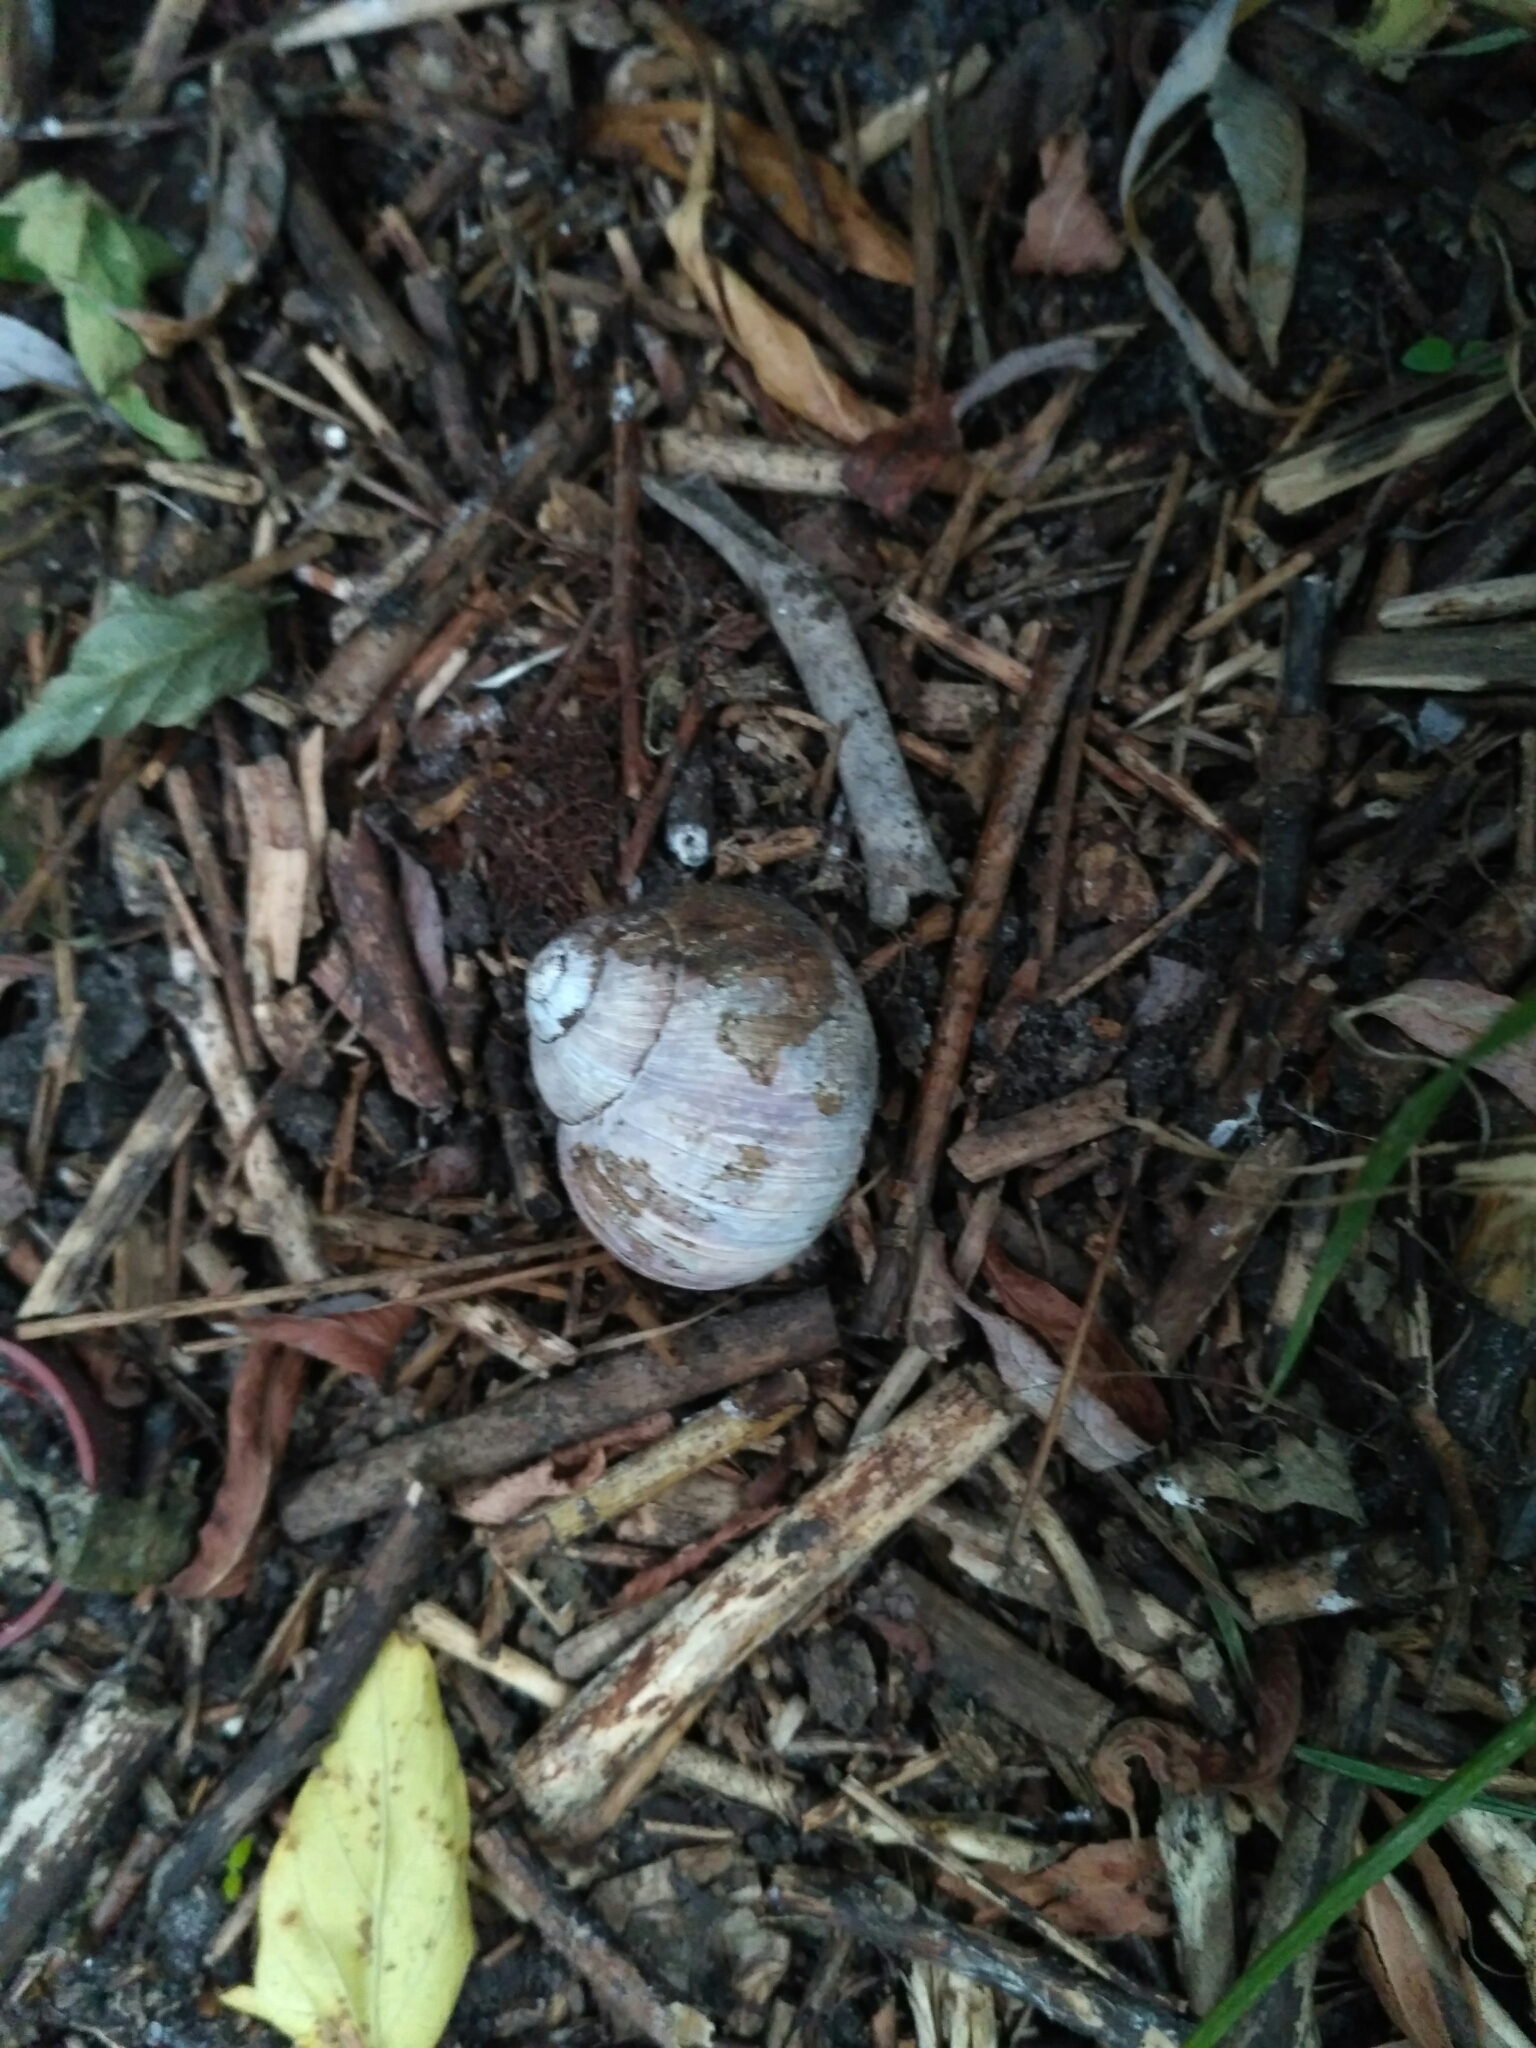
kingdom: Animalia
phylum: Mollusca
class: Gastropoda
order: Stylommatophora
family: Helicidae
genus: Helix
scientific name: Helix pomatia
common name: Roman snail
